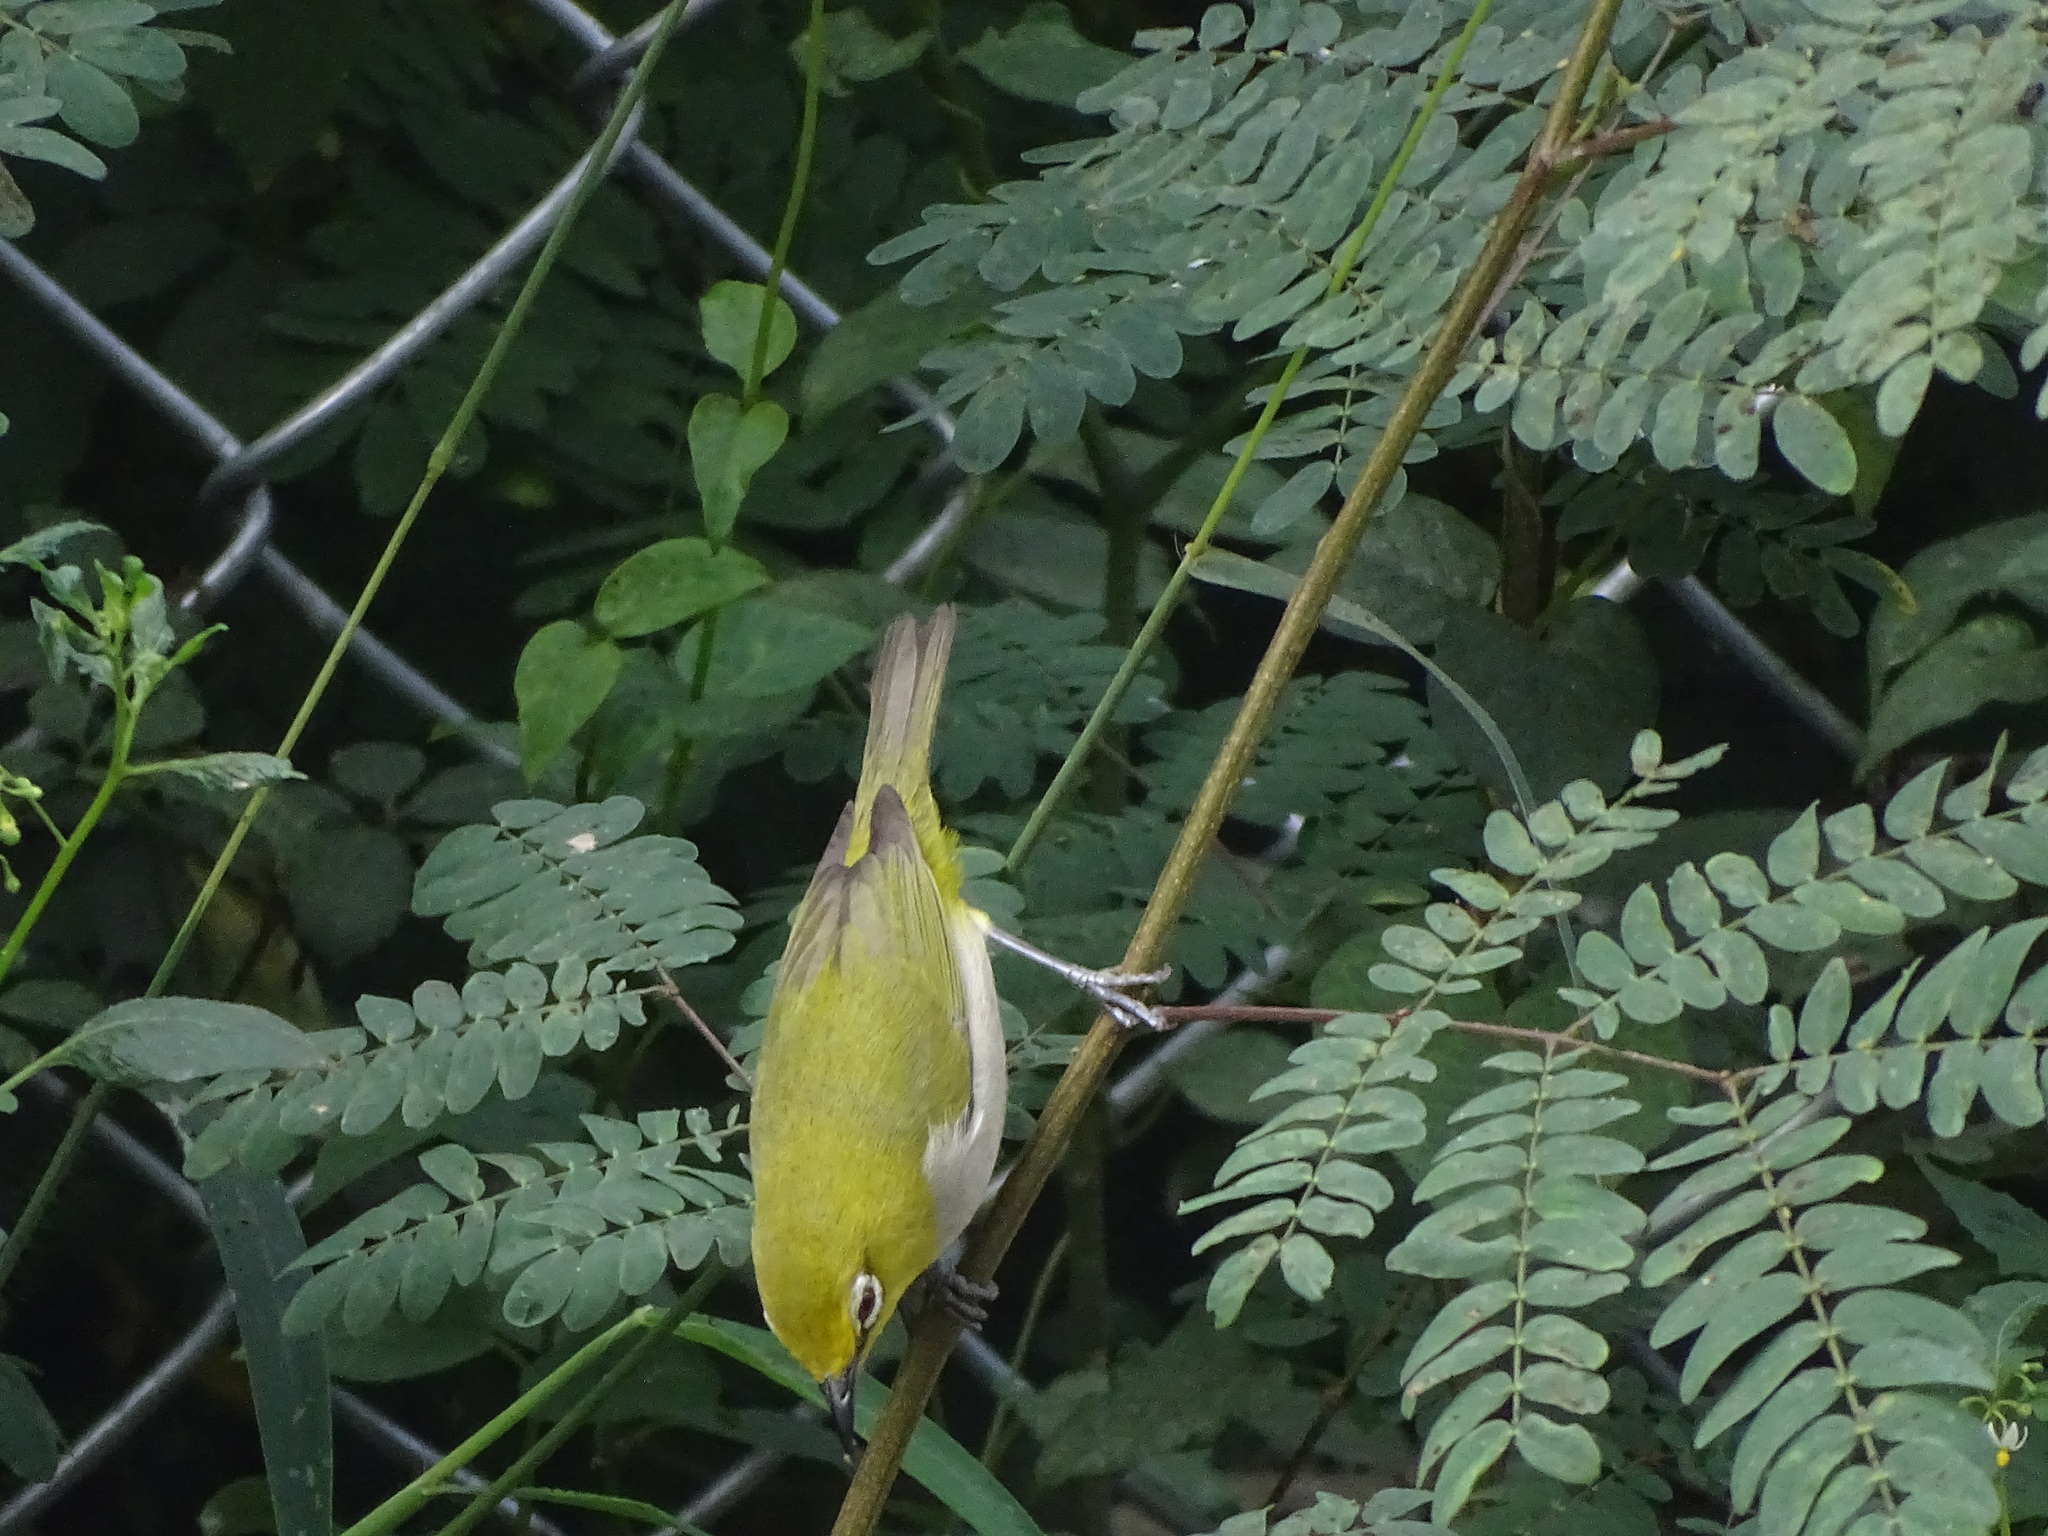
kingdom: Animalia
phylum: Chordata
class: Aves
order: Passeriformes
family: Zosteropidae
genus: Zosterops
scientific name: Zosterops simplex
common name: Swinhoe's white-eye
